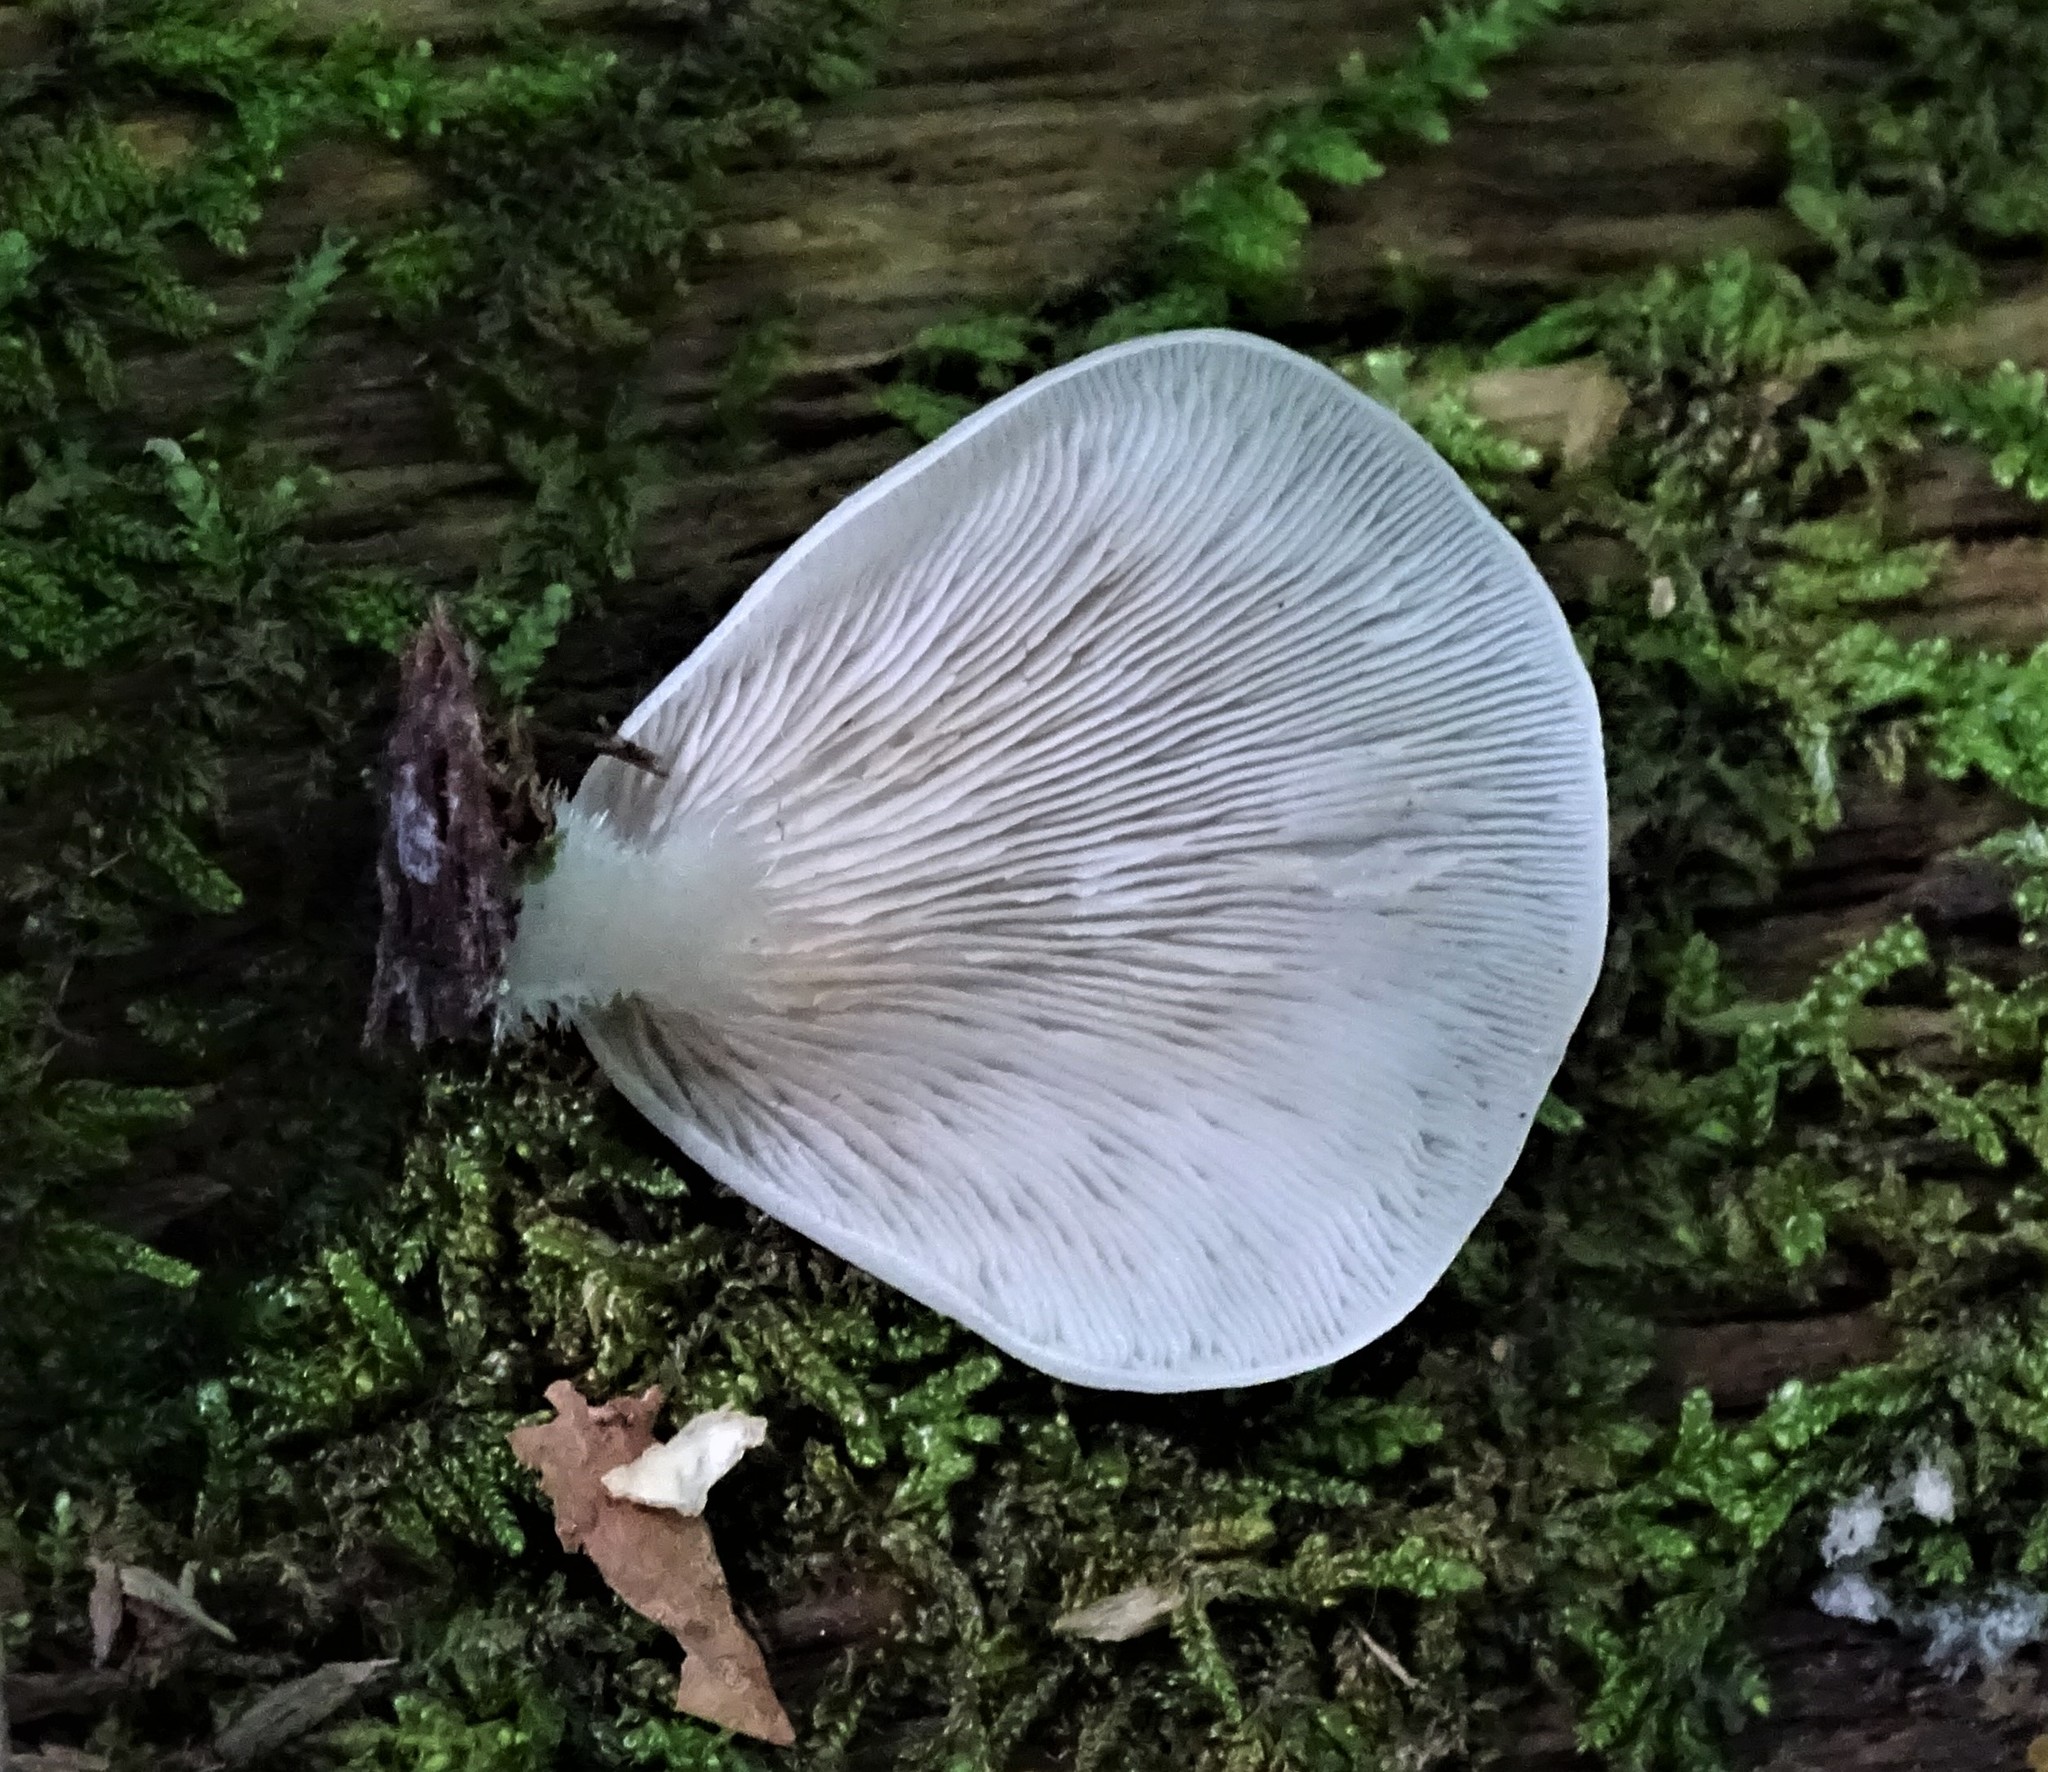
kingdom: Fungi
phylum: Basidiomycota
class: Agaricomycetes
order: Agaricales
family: Crepidotaceae
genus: Crepidotus
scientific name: Crepidotus applanatus
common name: Flat crep
